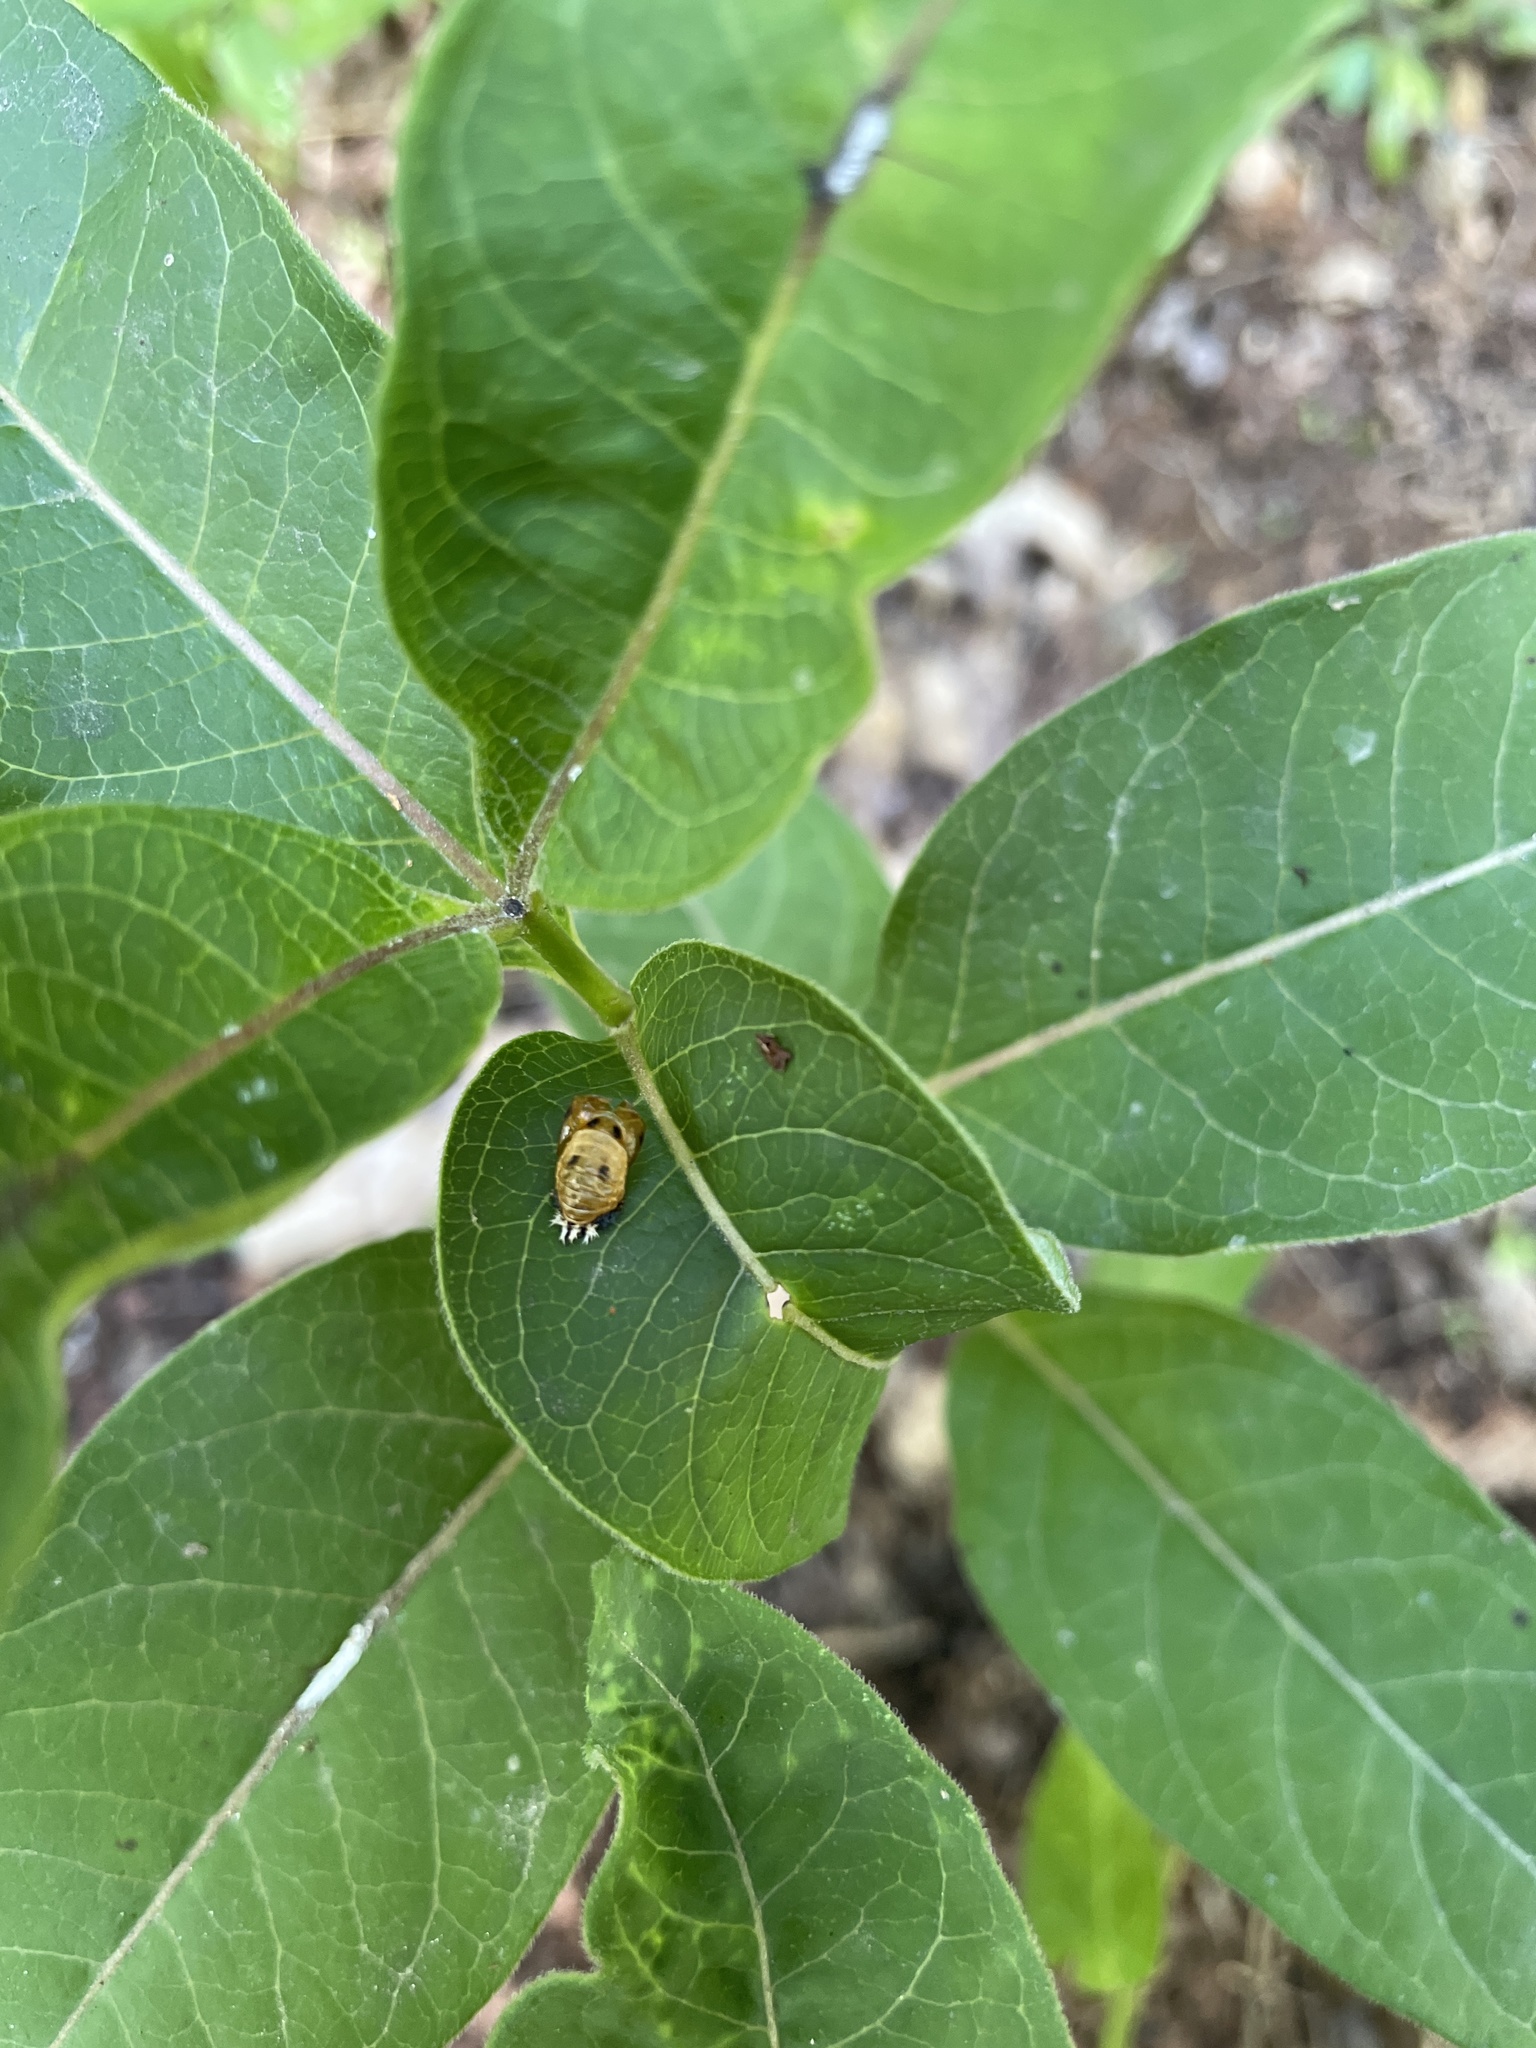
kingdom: Animalia
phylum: Arthropoda
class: Insecta
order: Coleoptera
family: Coccinellidae
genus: Harmonia
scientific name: Harmonia axyridis
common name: Harlequin ladybird
